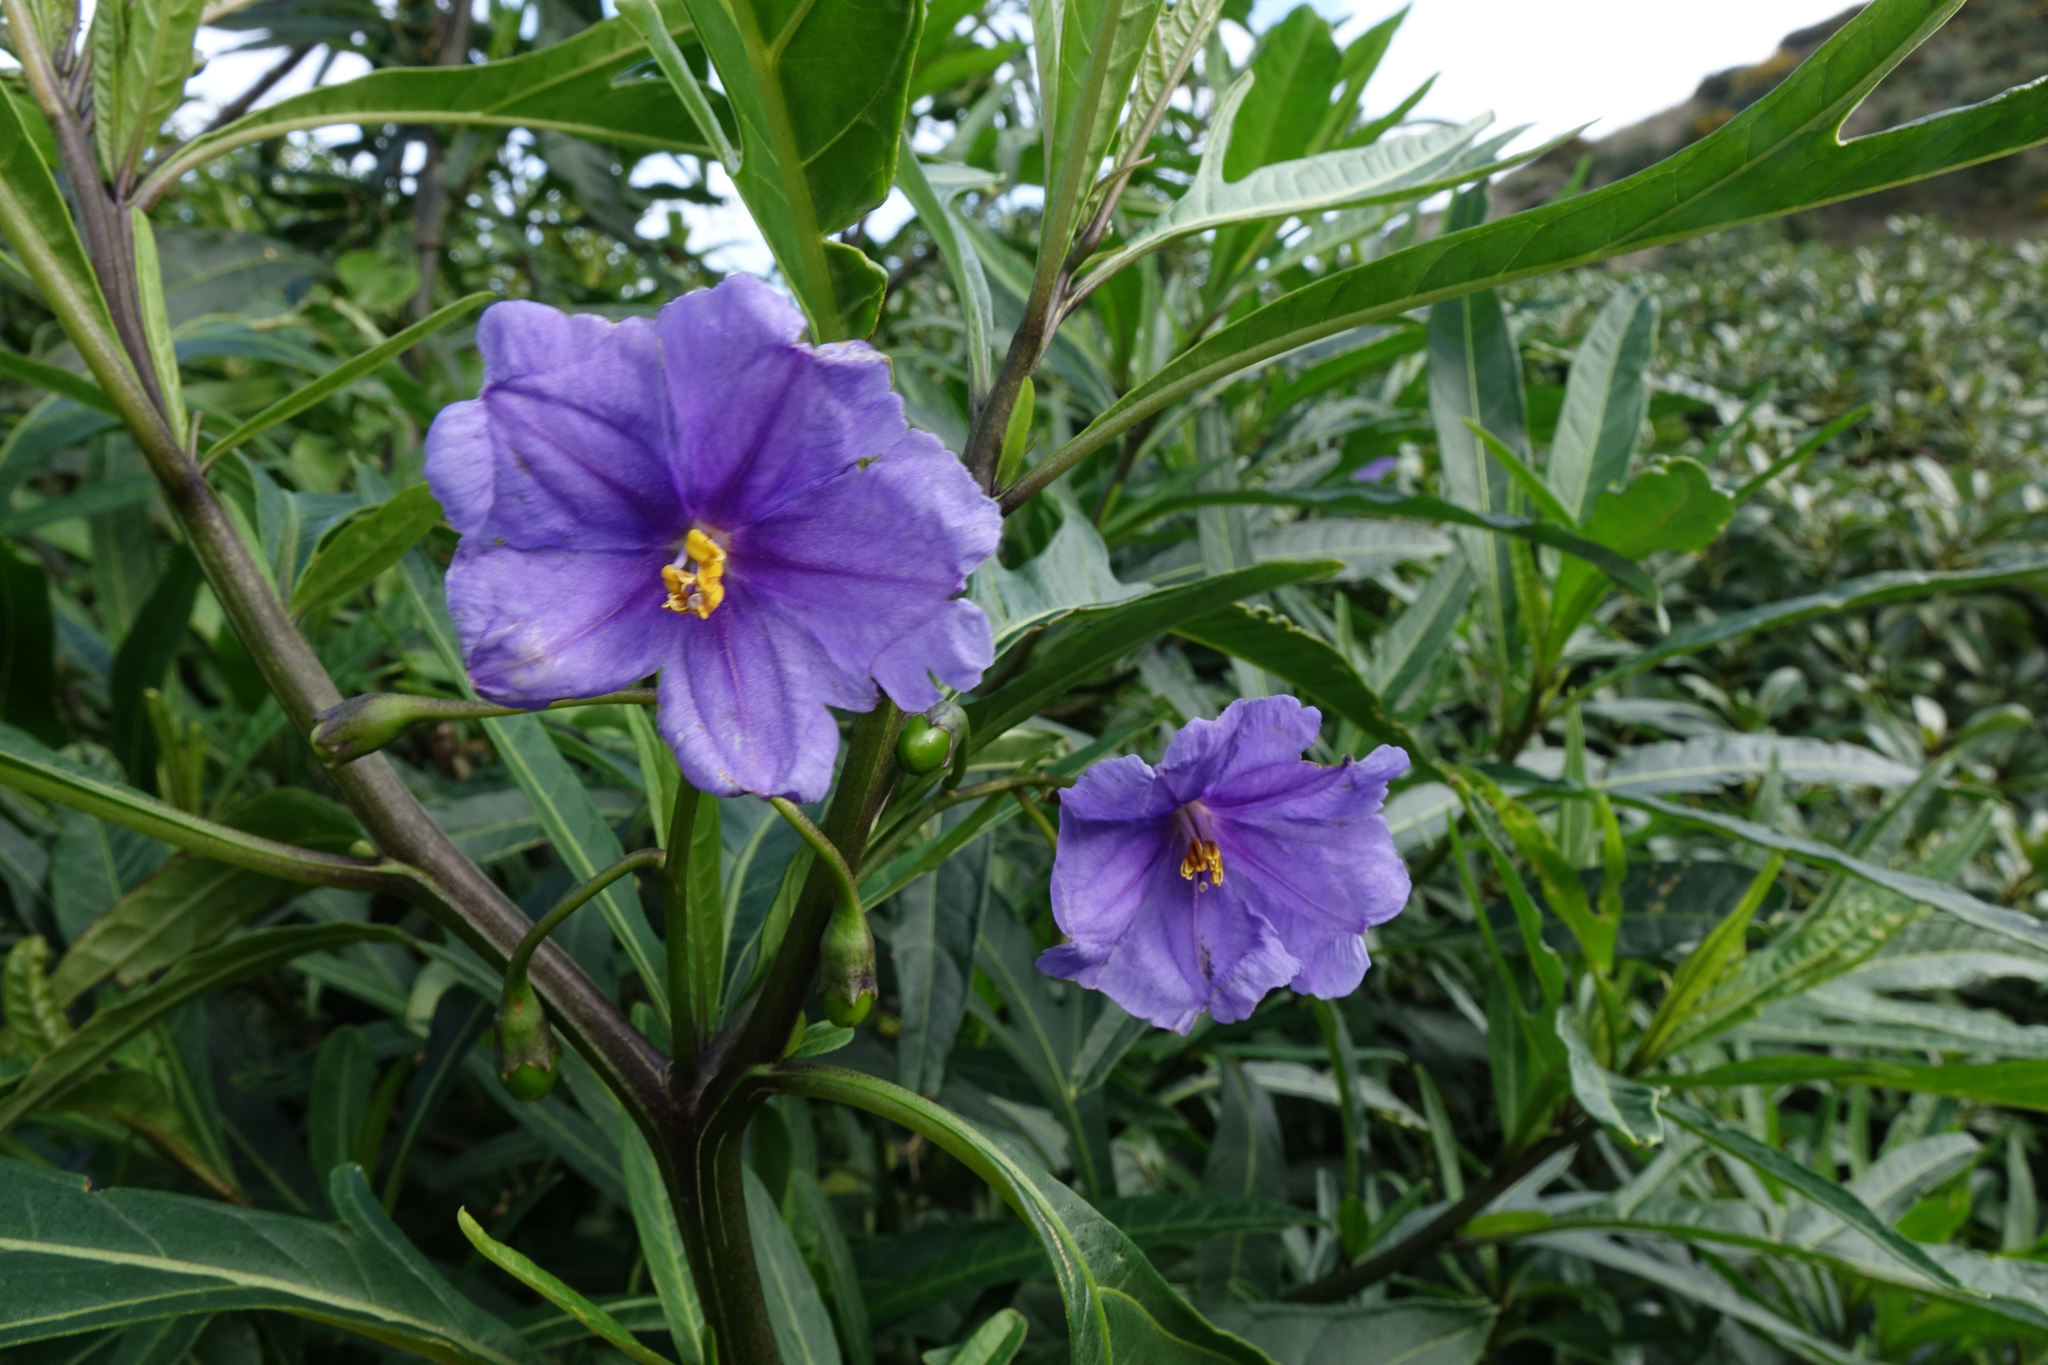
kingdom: Plantae
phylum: Tracheophyta
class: Magnoliopsida
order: Solanales
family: Solanaceae
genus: Solanum
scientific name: Solanum laciniatum
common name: Kangaroo-apple
